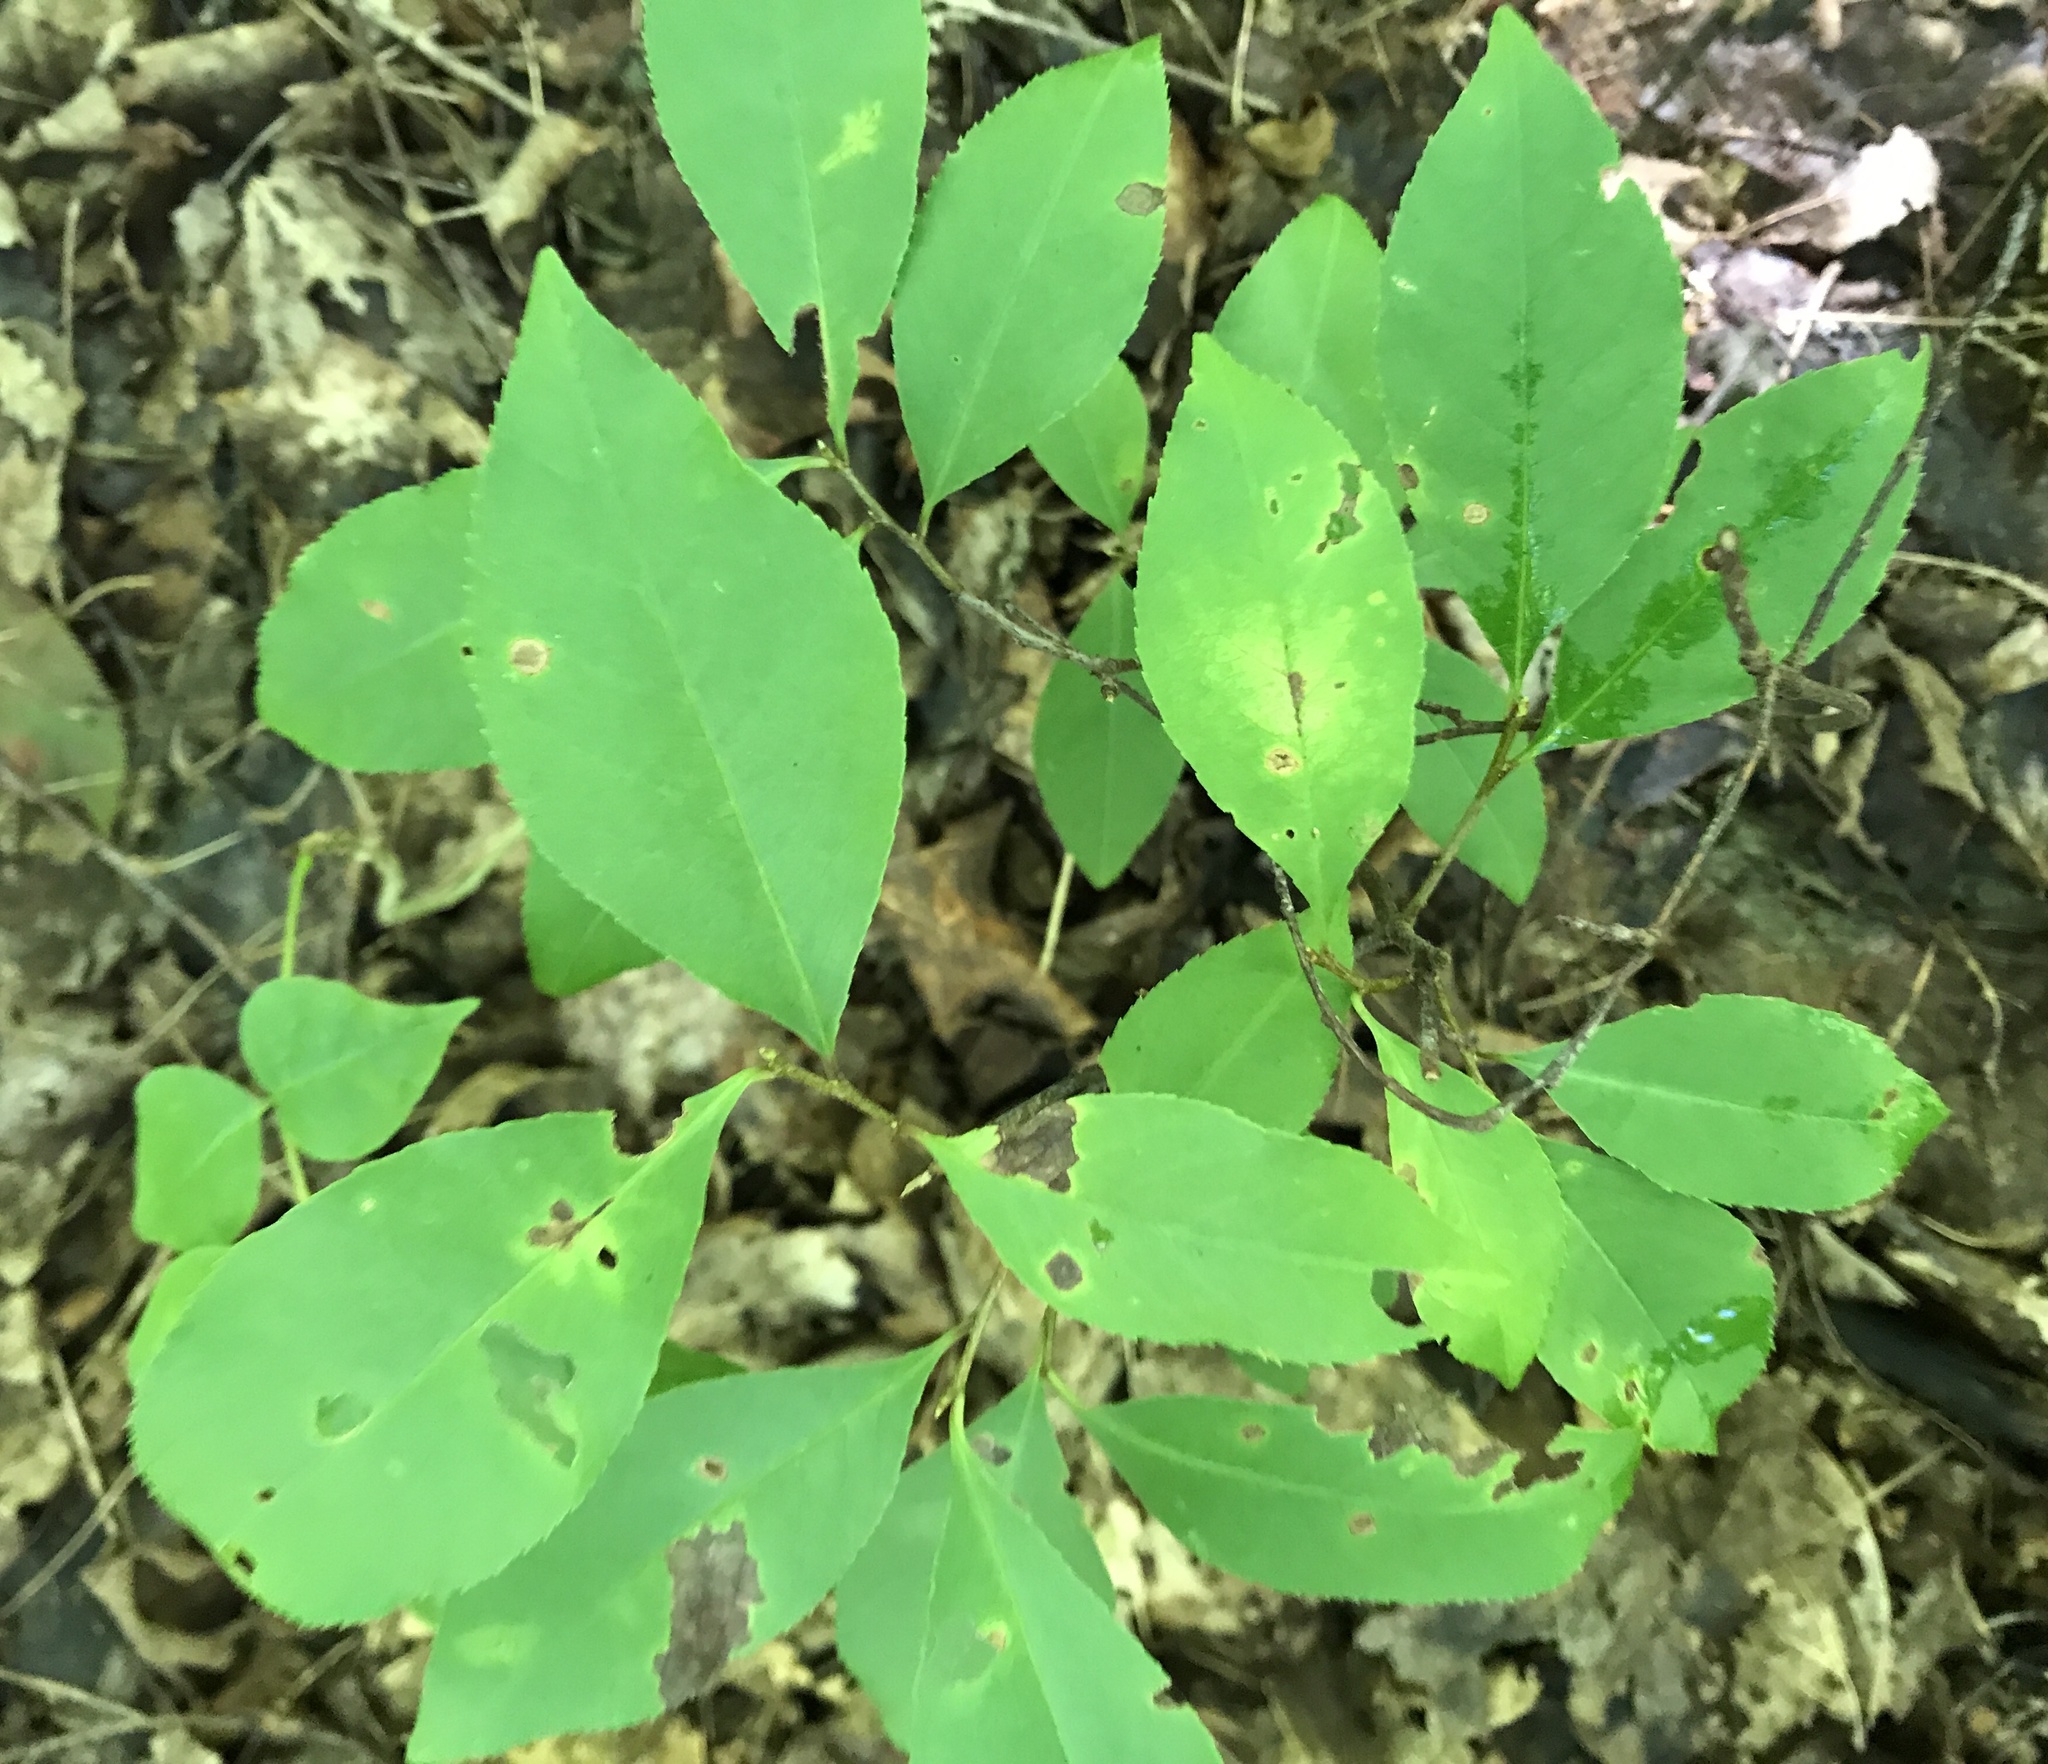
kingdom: Plantae
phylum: Tracheophyta
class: Magnoliopsida
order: Rosales
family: Rosaceae
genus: Prunus
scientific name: Prunus serotina
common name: Black cherry
